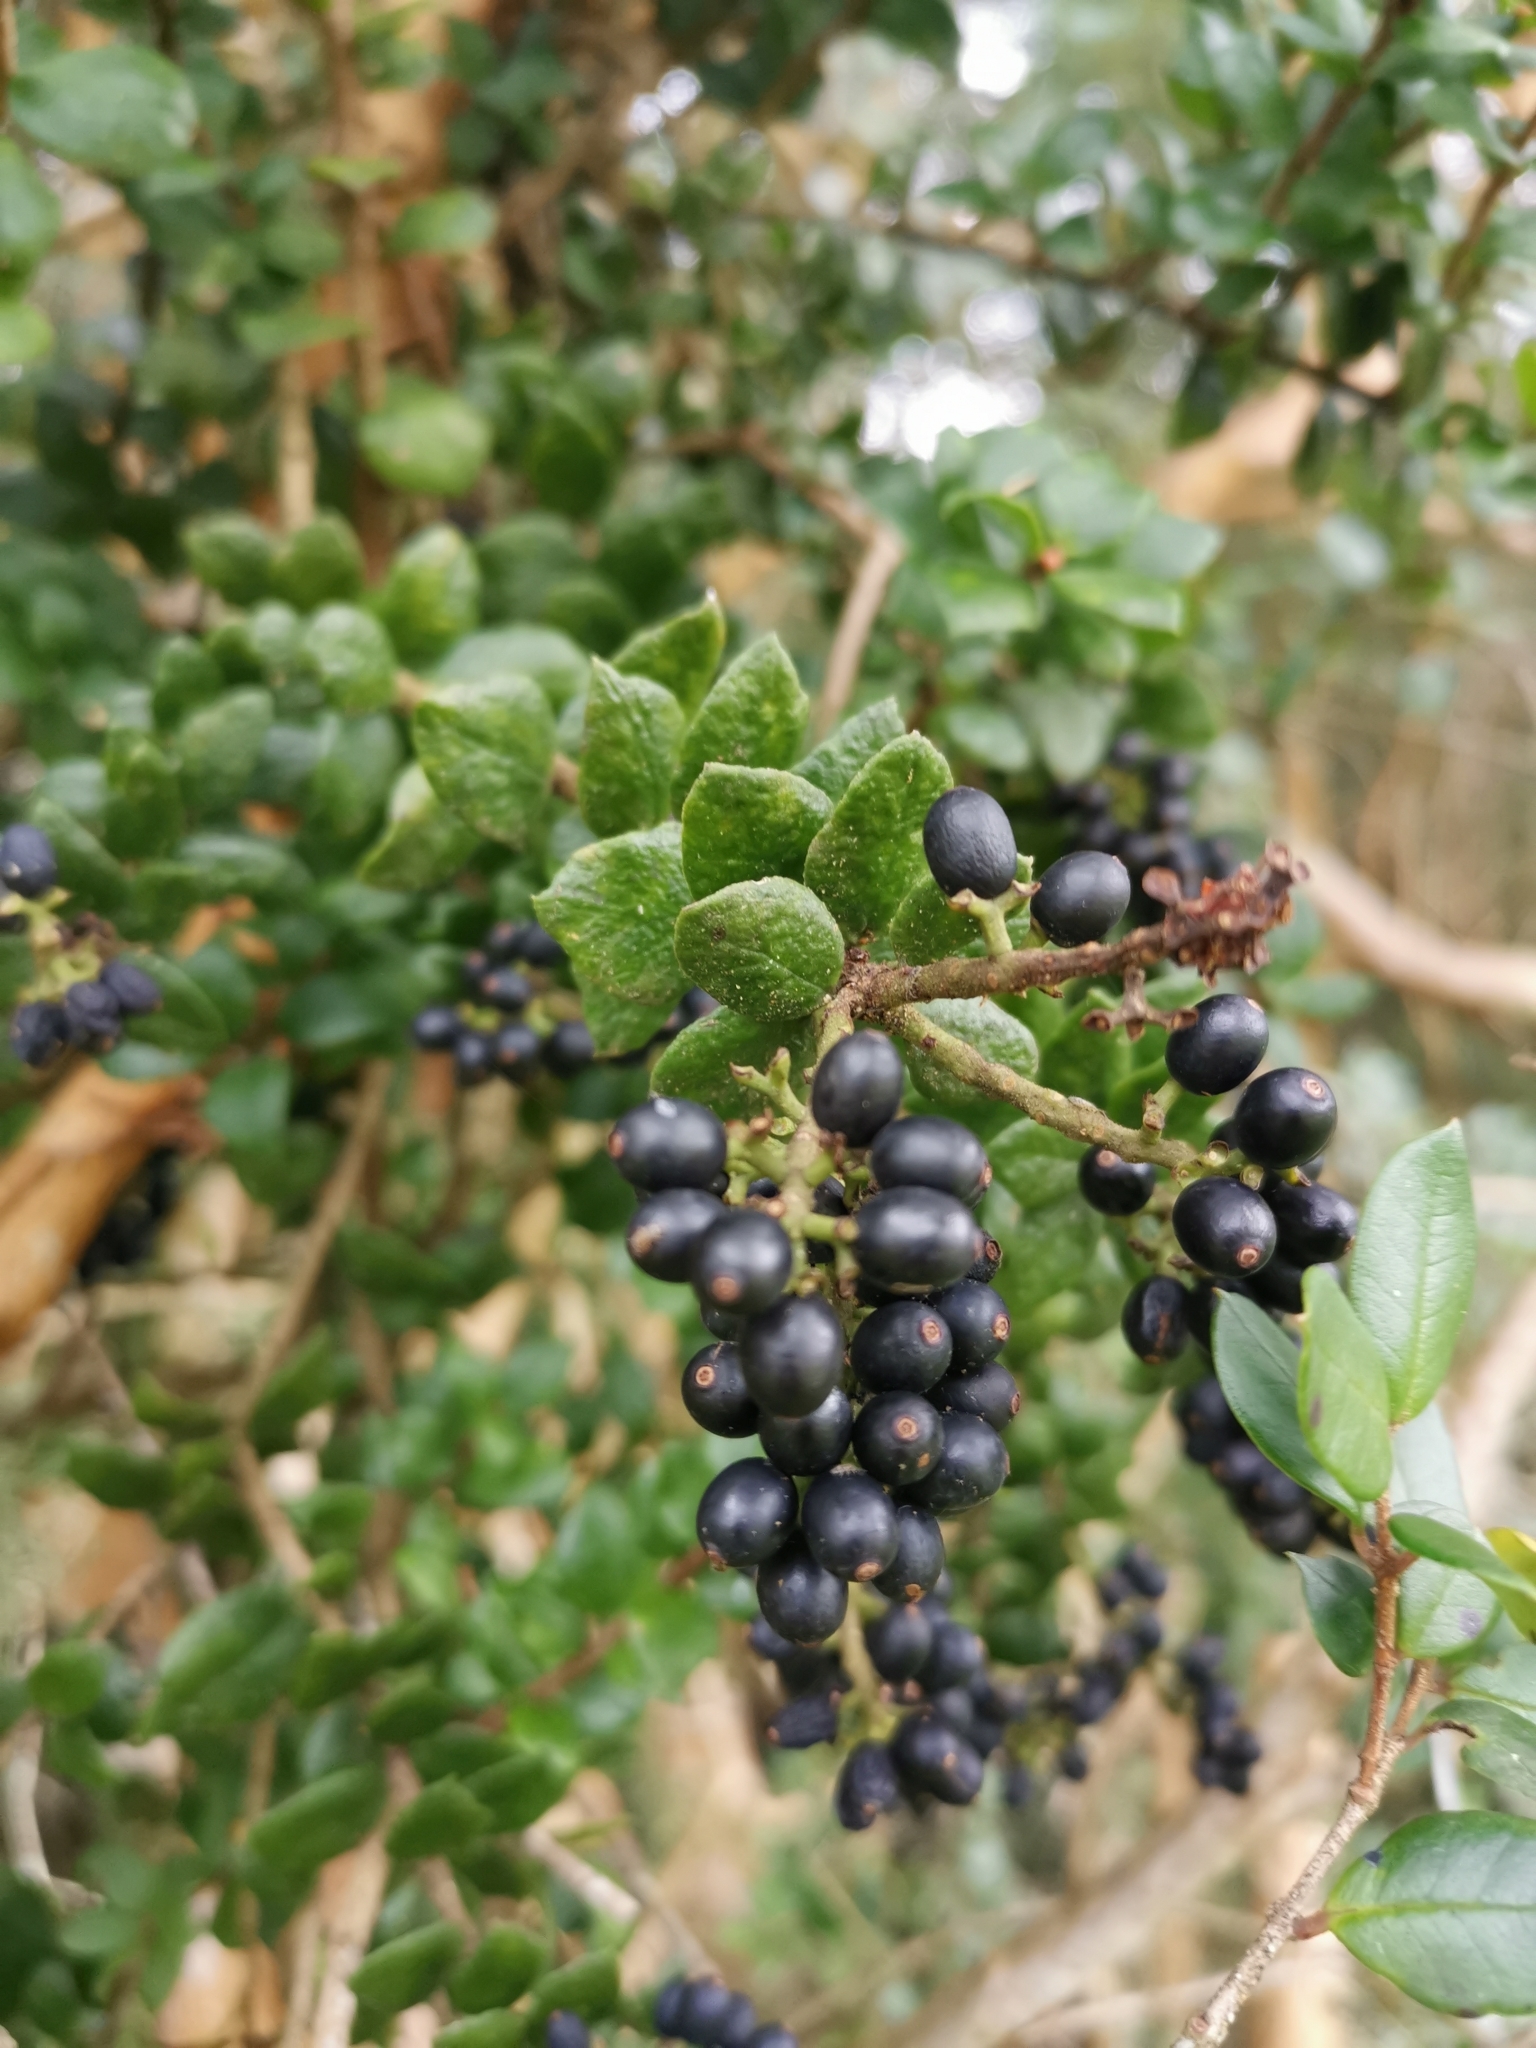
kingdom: Plantae
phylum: Tracheophyta
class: Magnoliopsida
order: Santalales
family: Loranthaceae
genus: Notanthera
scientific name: Notanthera heterophylla
